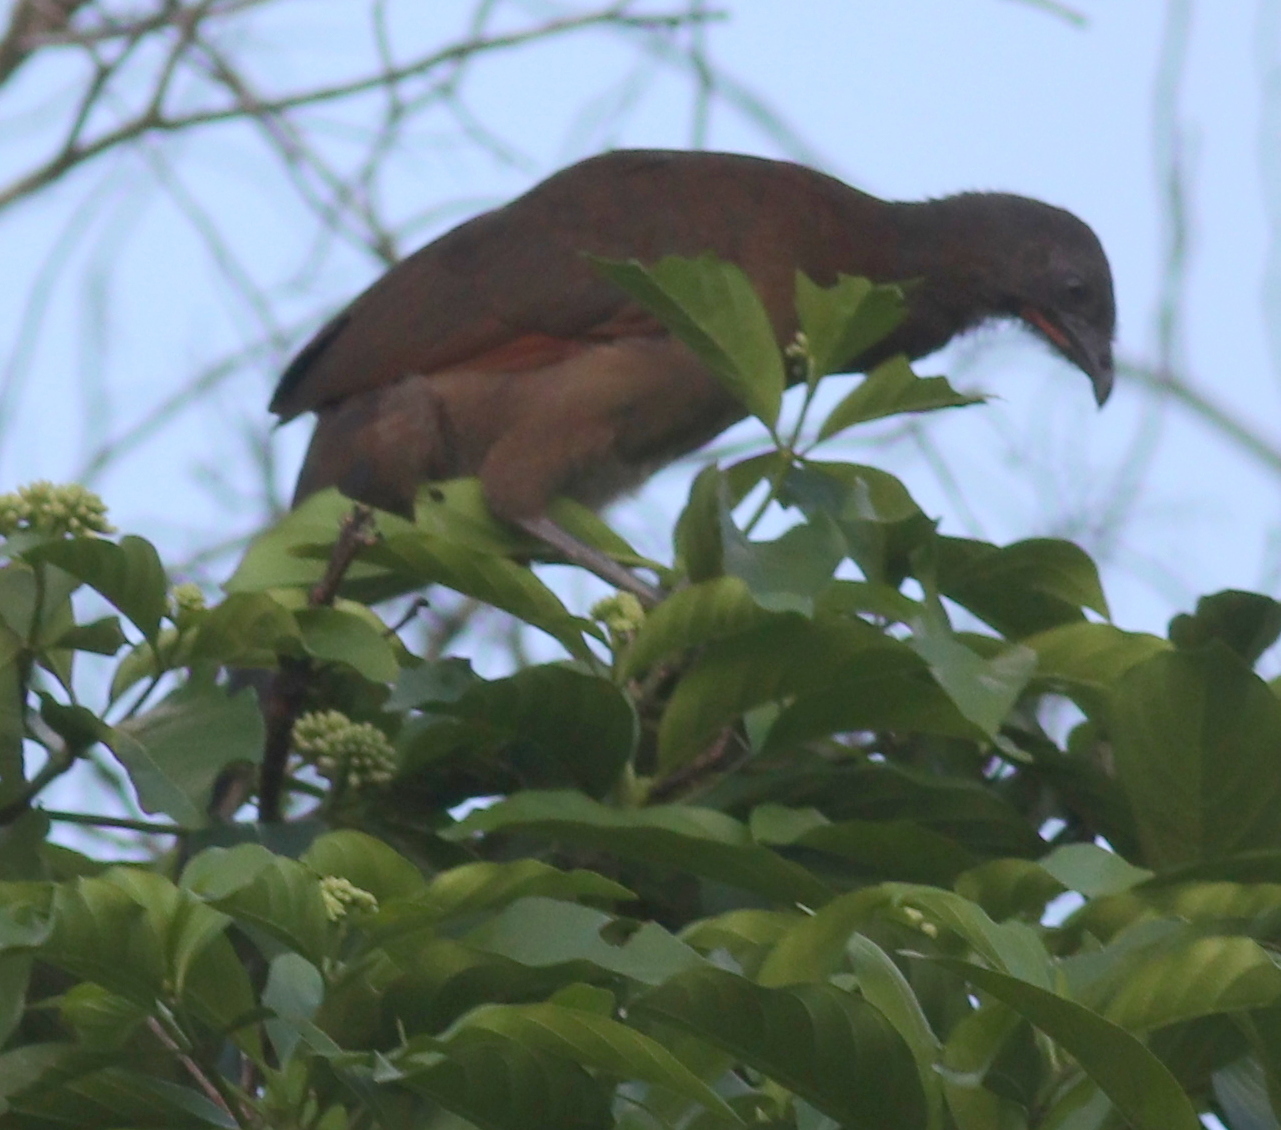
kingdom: Animalia
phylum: Chordata
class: Aves
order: Galliformes
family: Cracidae
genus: Ortalis
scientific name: Ortalis cinereiceps
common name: Grey-headed chachalaca
